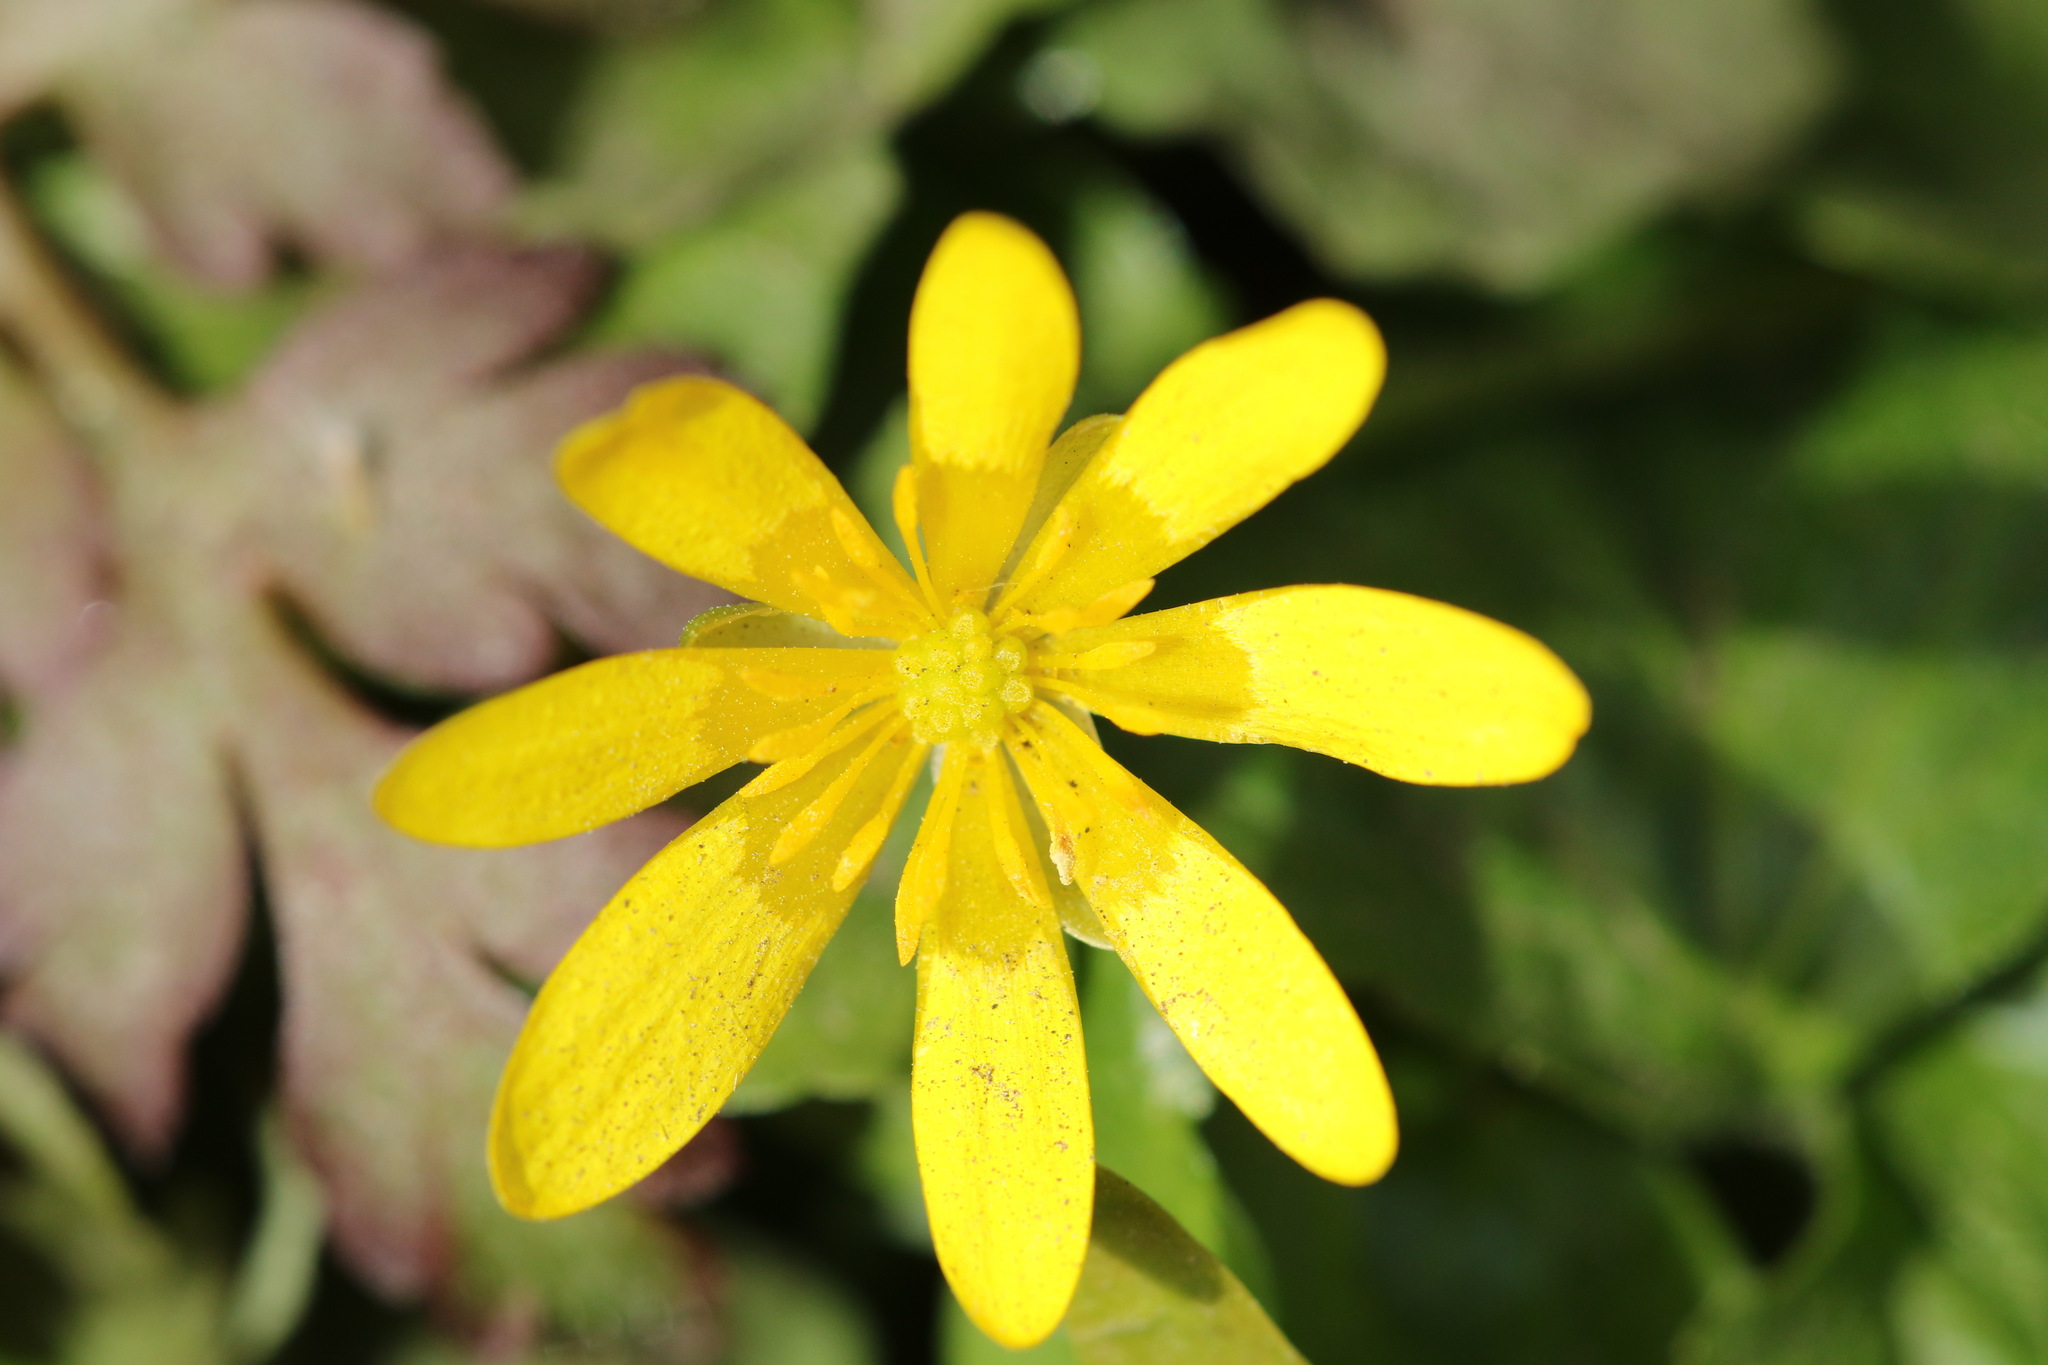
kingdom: Plantae
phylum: Tracheophyta
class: Magnoliopsida
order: Ranunculales
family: Ranunculaceae
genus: Ficaria
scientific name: Ficaria verna
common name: Lesser celandine
